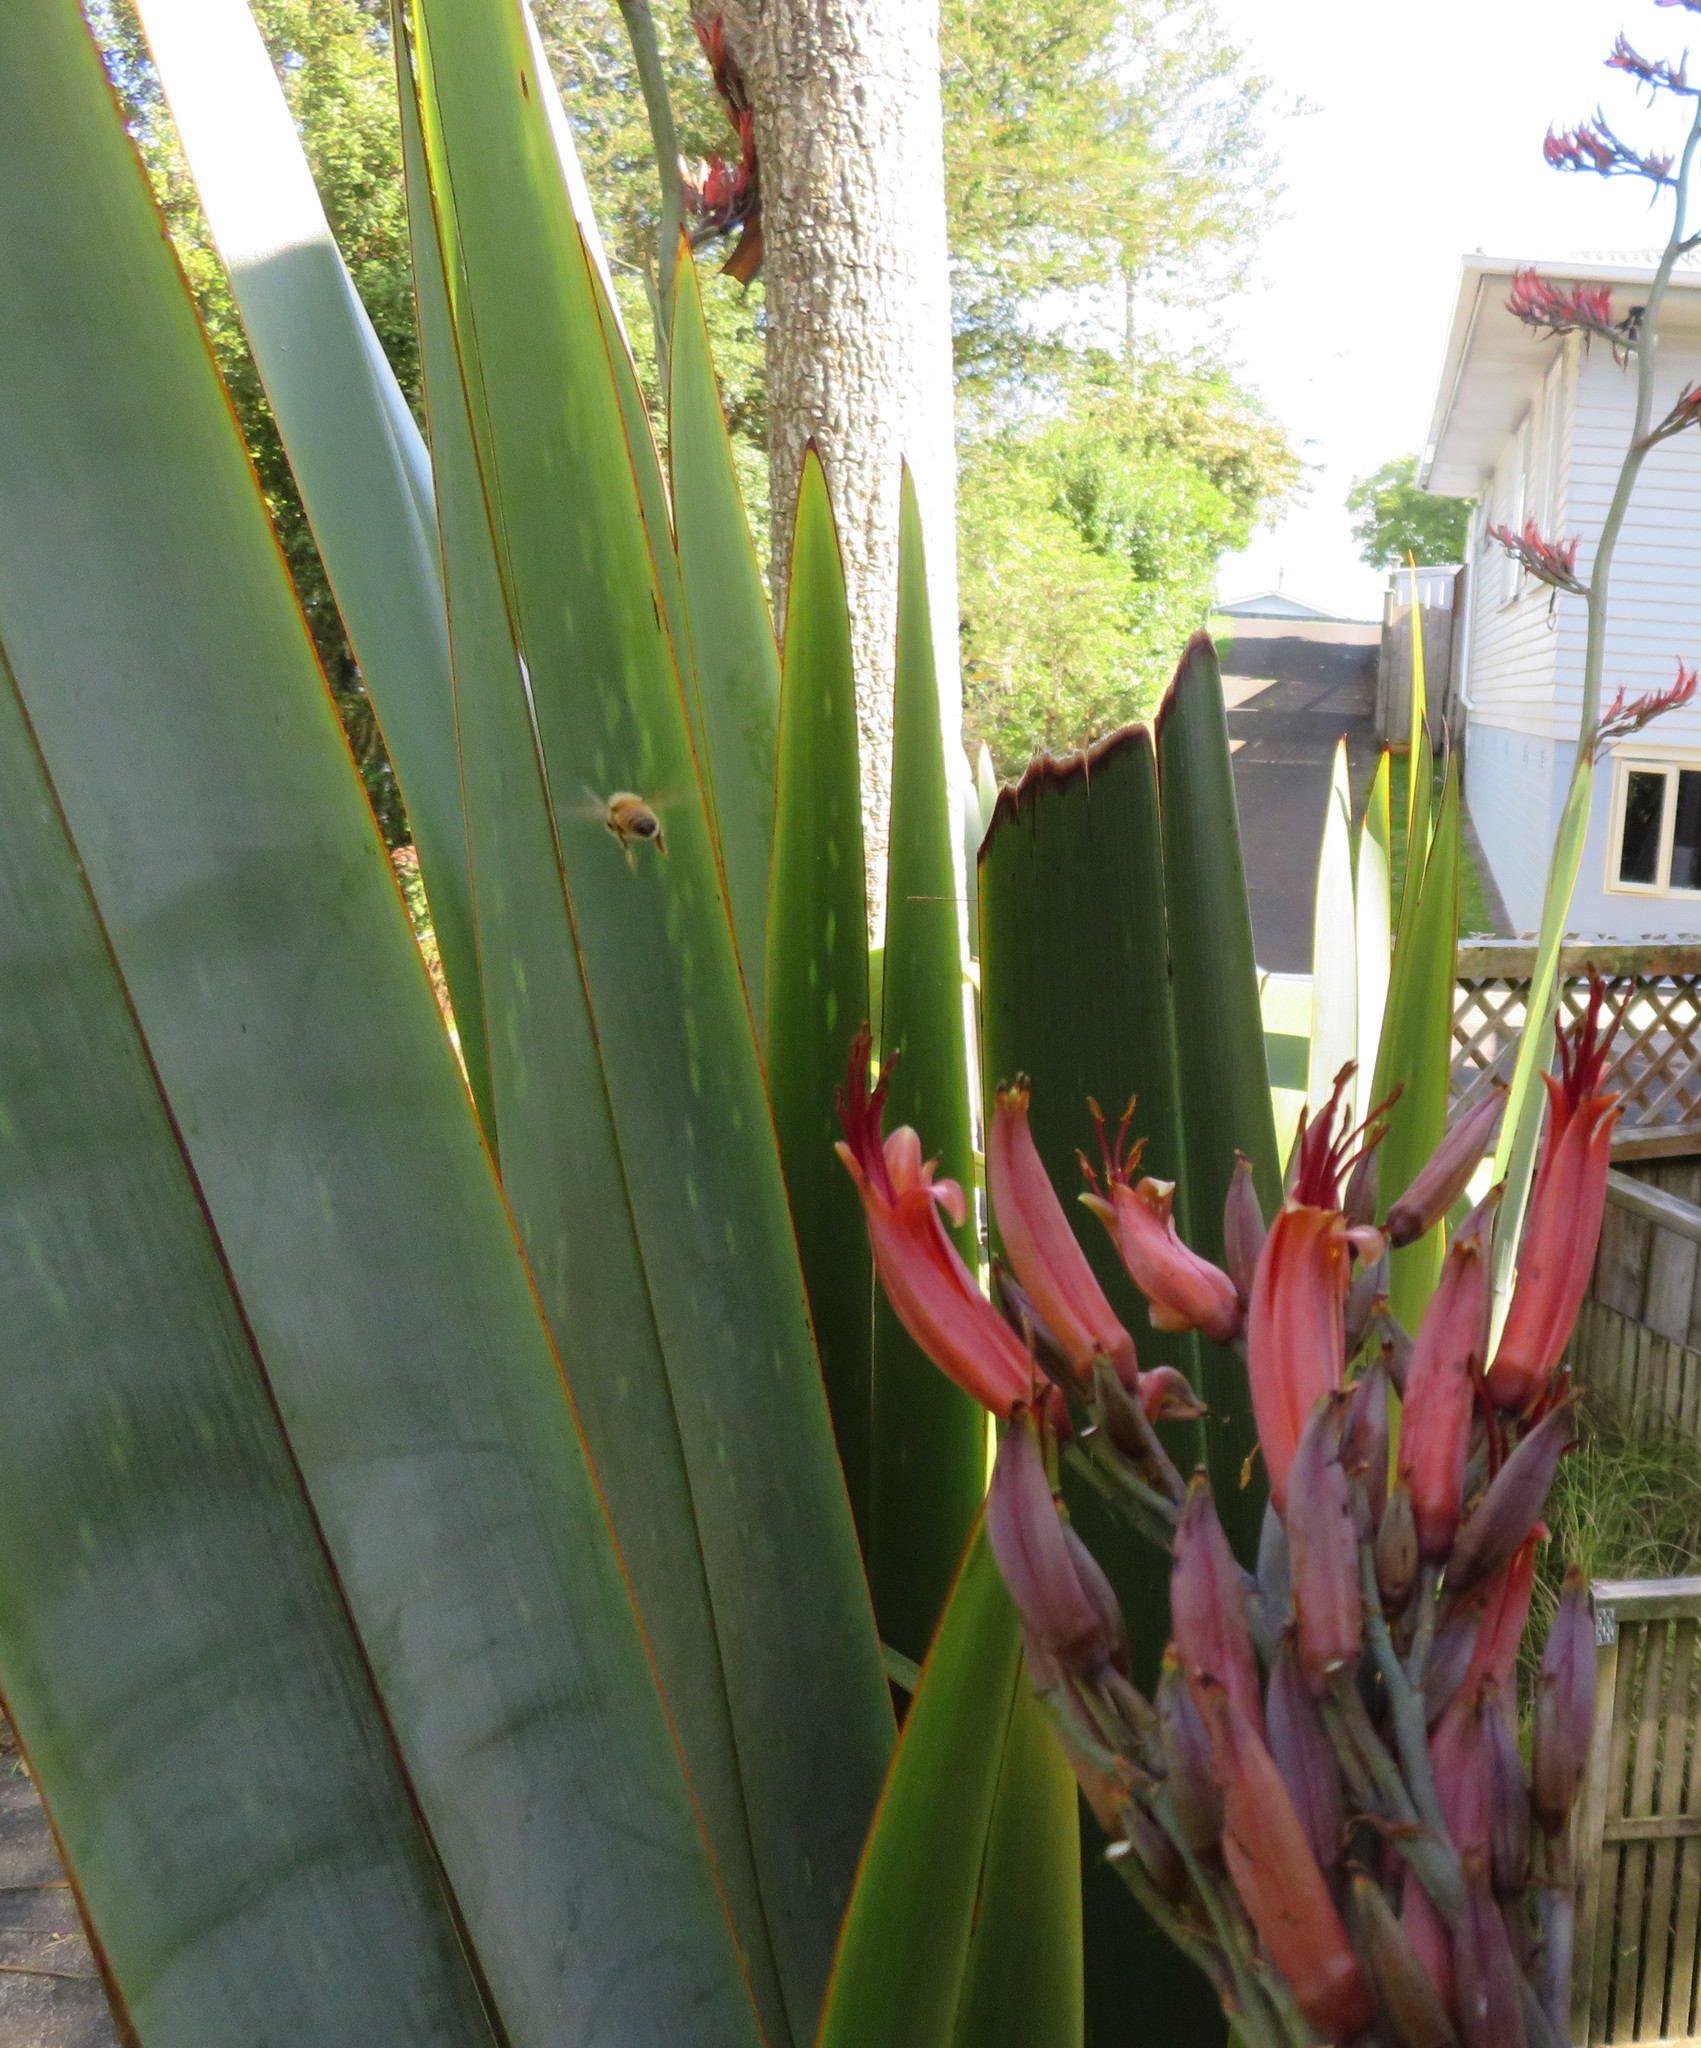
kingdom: Animalia
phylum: Arthropoda
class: Insecta
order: Hymenoptera
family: Apidae
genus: Apis
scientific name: Apis mellifera
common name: Honey bee
